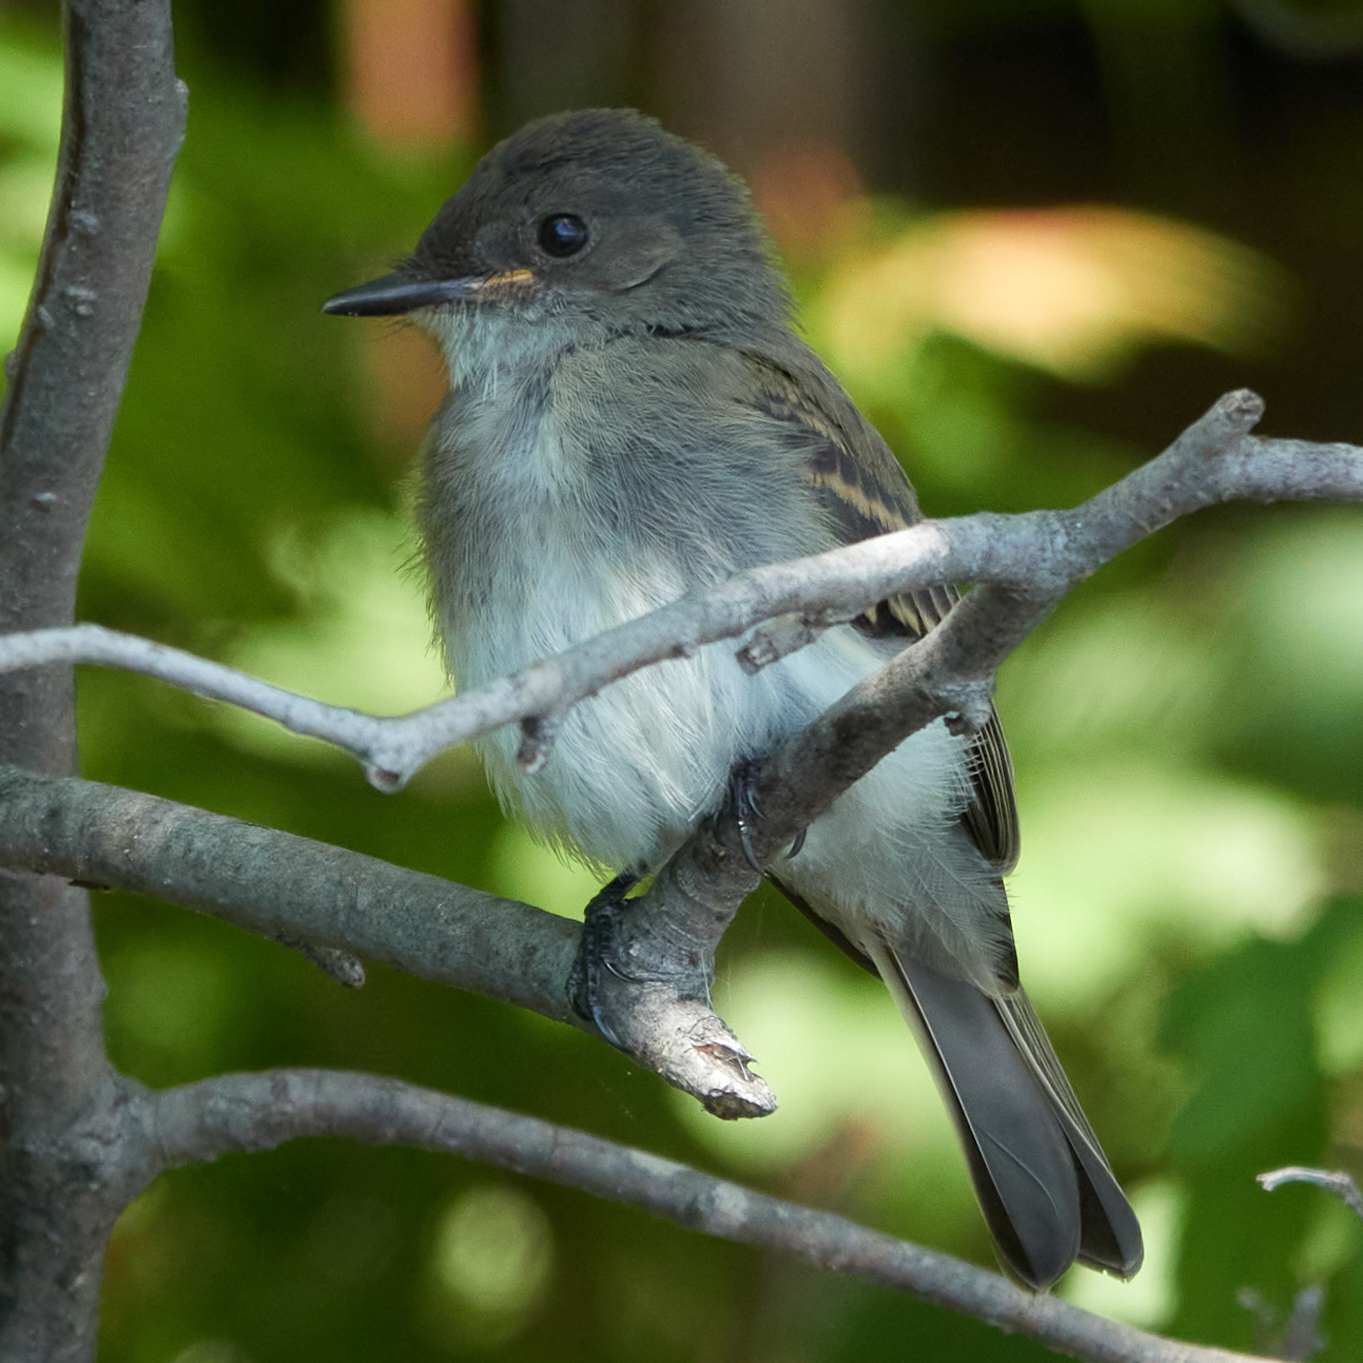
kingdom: Animalia
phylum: Chordata
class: Aves
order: Passeriformes
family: Tyrannidae
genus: Sayornis
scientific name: Sayornis phoebe
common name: Eastern phoebe
